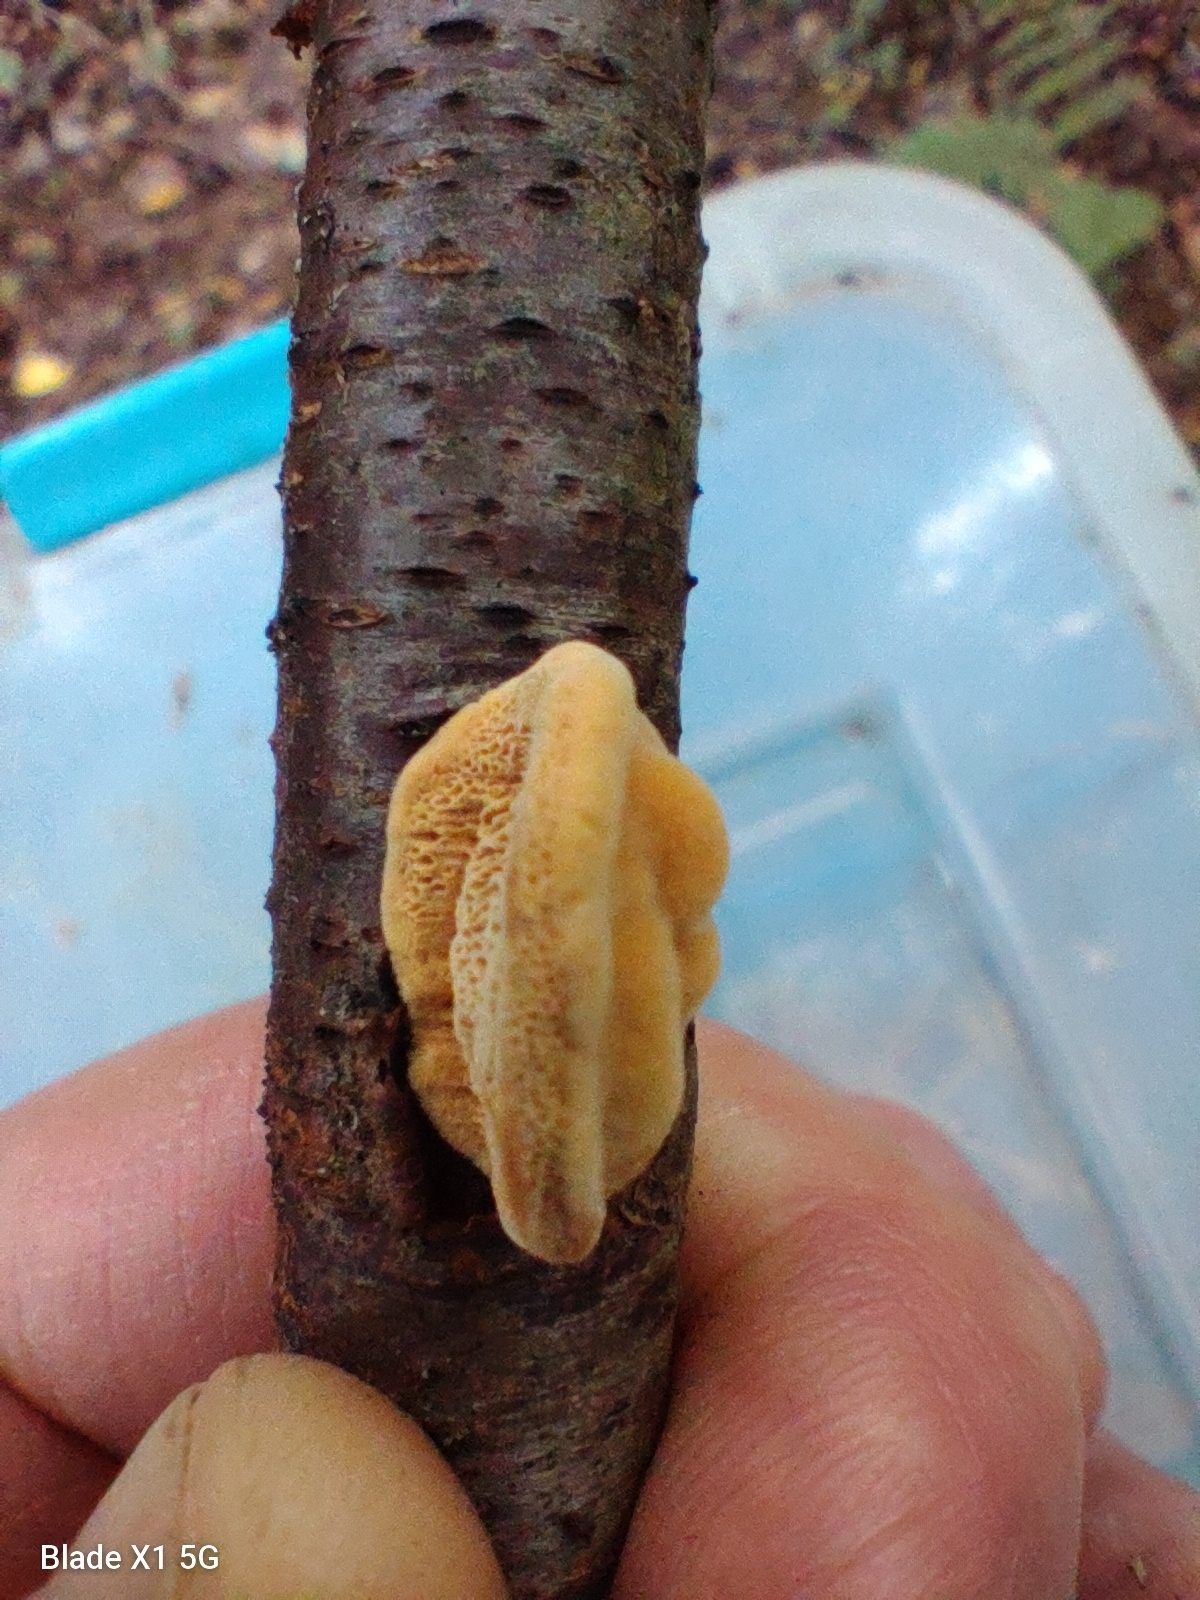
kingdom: Fungi
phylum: Basidiomycota
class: Agaricomycetes
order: Polyporales
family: Phanerochaetaceae
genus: Hapalopilus
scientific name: Hapalopilus rutilans
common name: Tender nesting polypore
